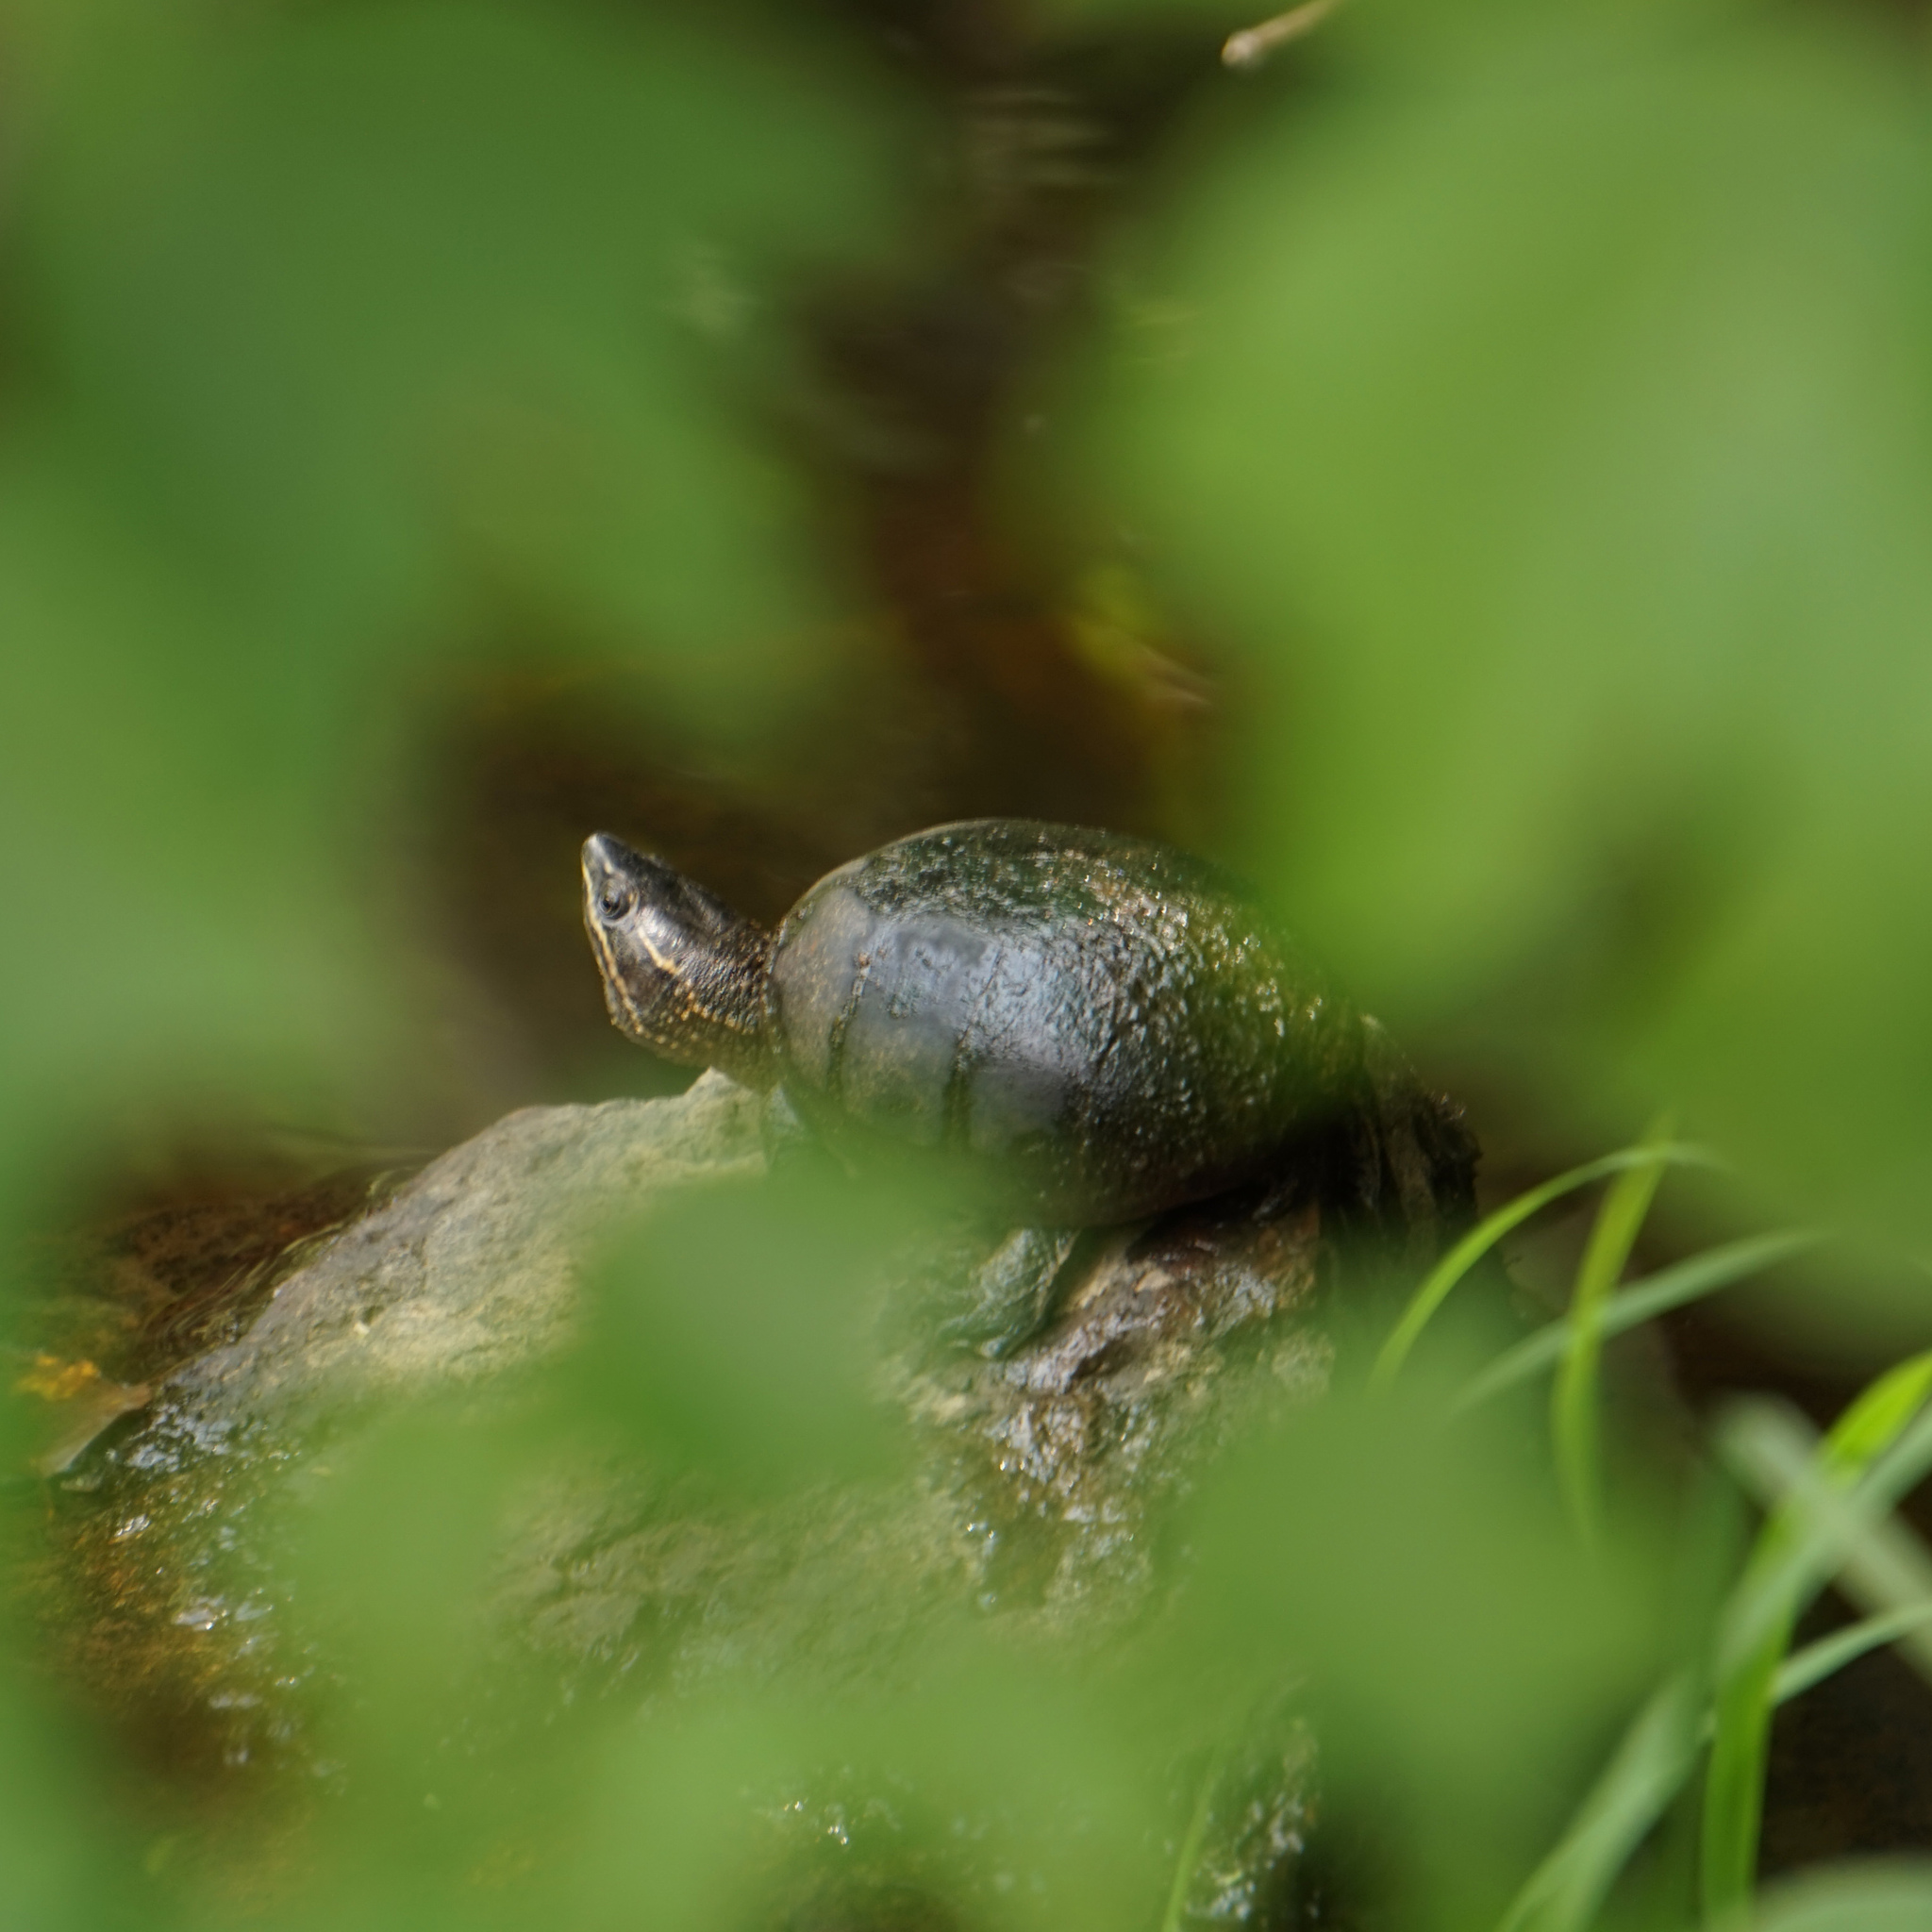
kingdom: Animalia
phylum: Chordata
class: Testudines
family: Kinosternidae
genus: Sternotherus
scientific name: Sternotherus odoratus
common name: Common musk turtle
